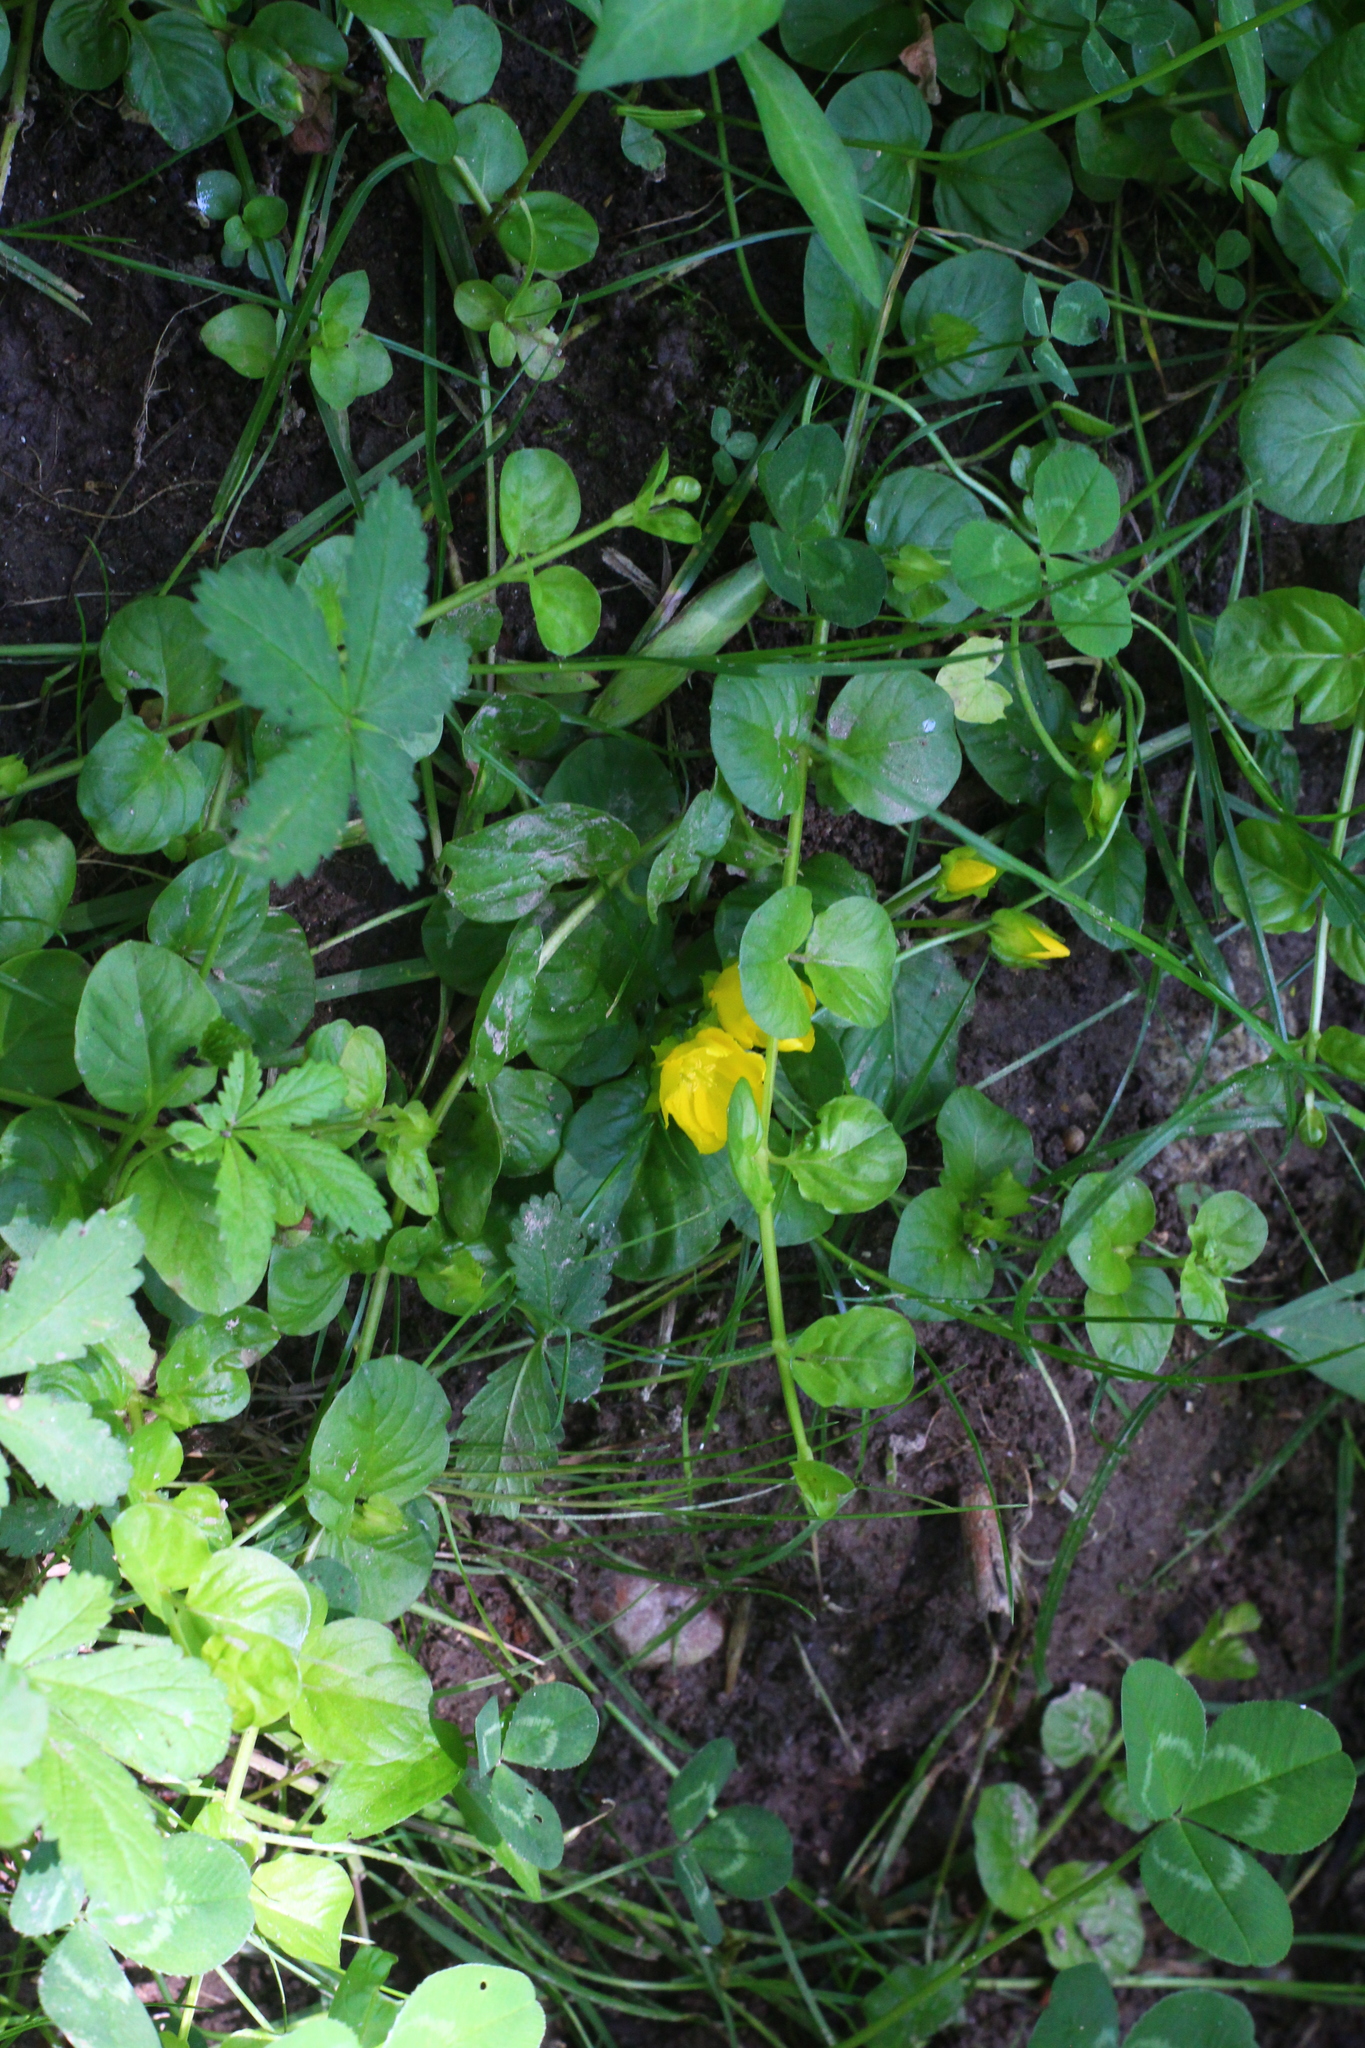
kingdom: Plantae
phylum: Tracheophyta
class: Magnoliopsida
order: Ericales
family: Primulaceae
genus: Lysimachia
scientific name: Lysimachia nummularia
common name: Moneywort
